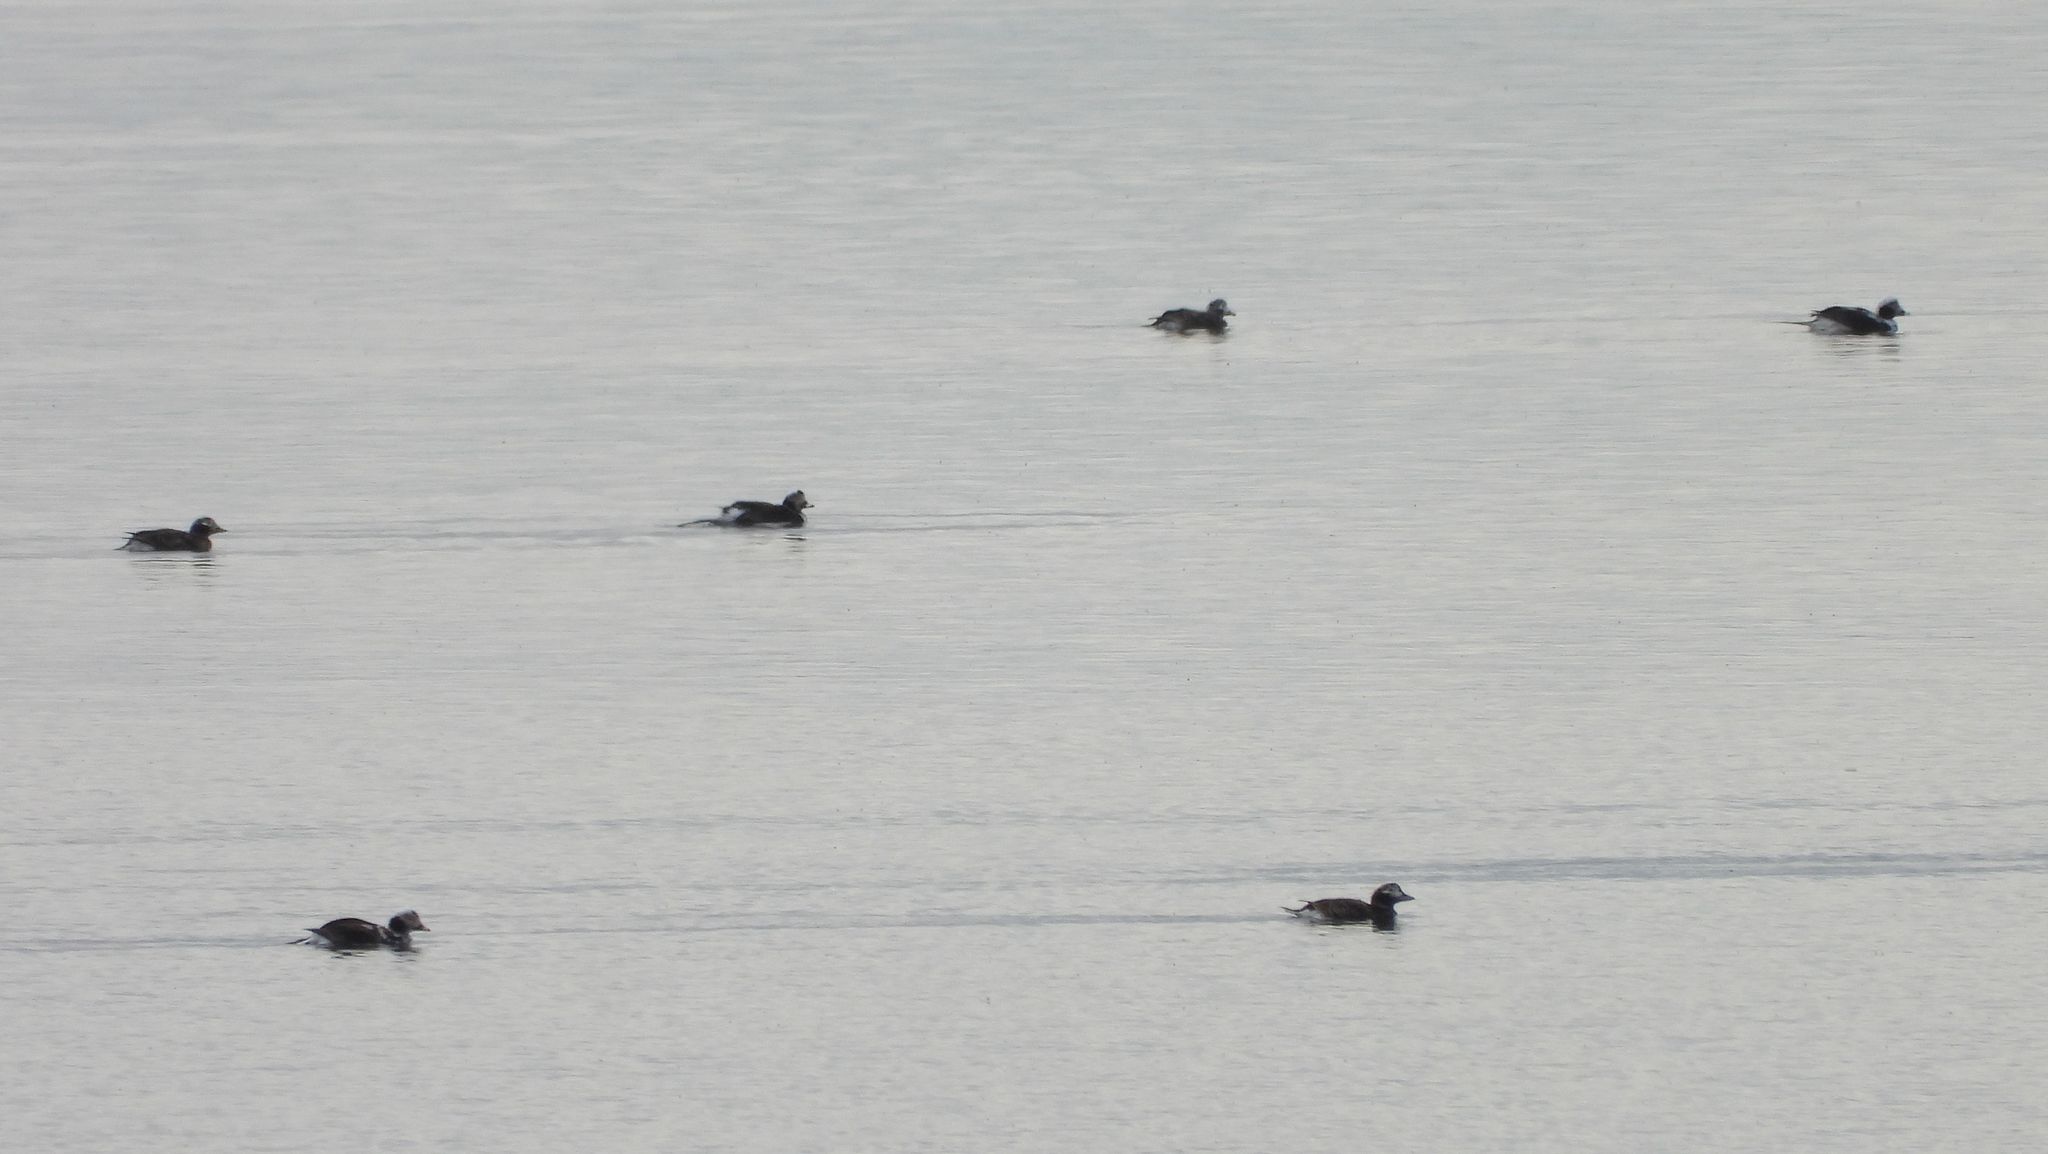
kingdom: Animalia
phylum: Chordata
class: Aves
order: Anseriformes
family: Anatidae
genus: Clangula
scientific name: Clangula hyemalis
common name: Long-tailed duck
